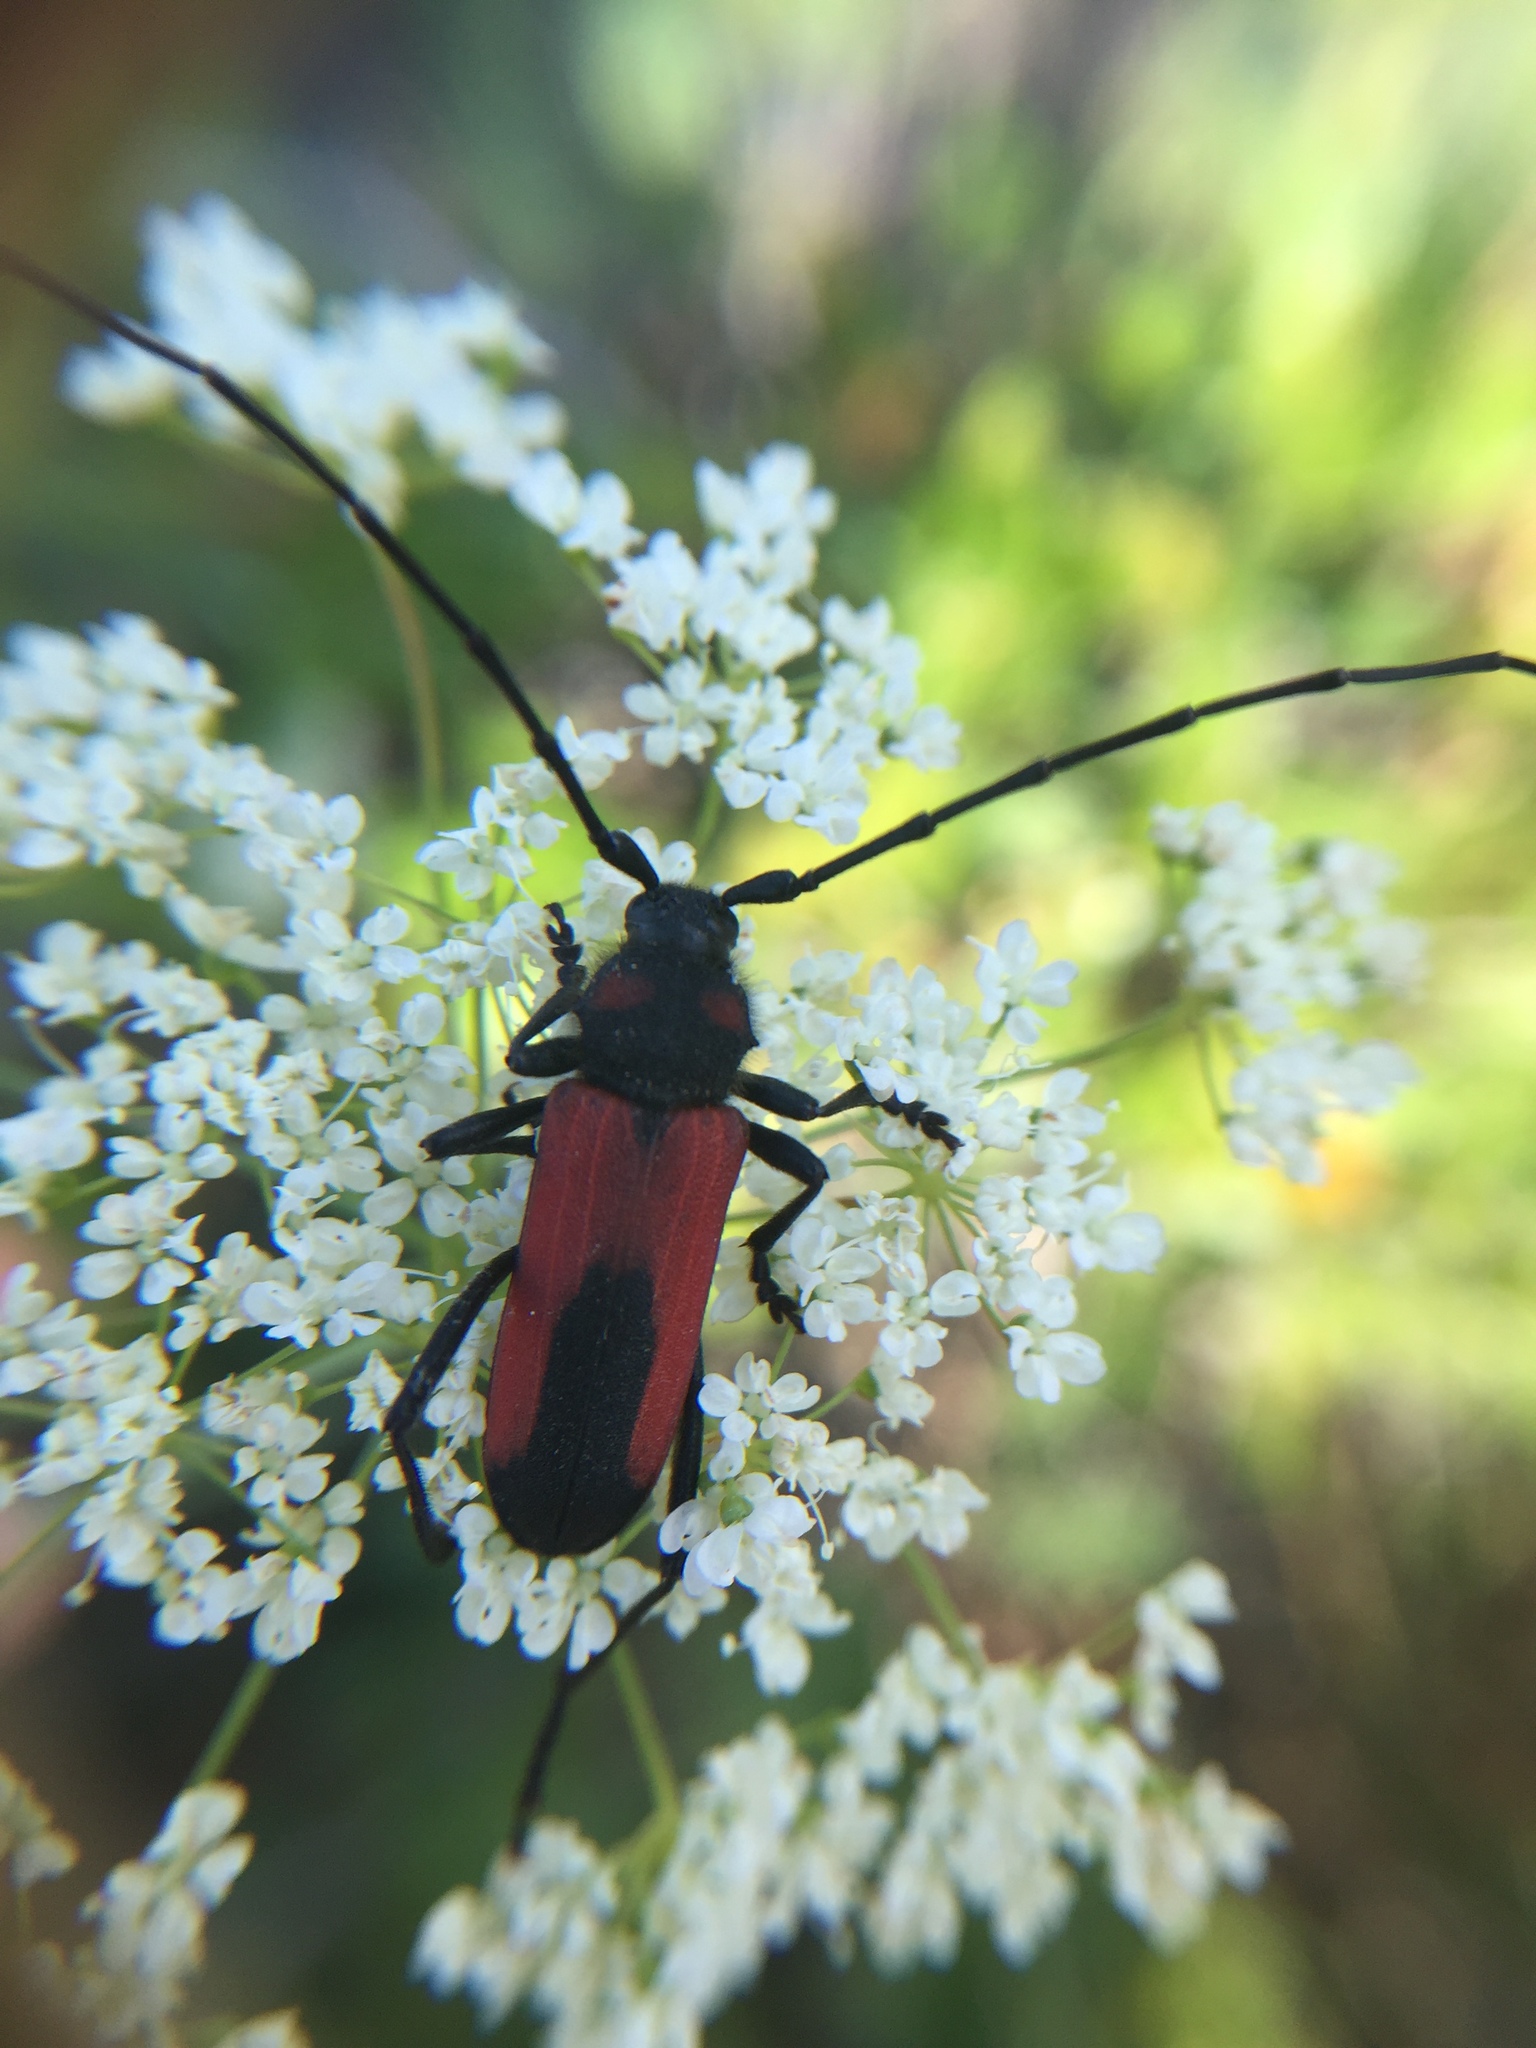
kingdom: Animalia
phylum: Arthropoda
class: Insecta
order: Coleoptera
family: Cerambycidae
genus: Purpuricenus
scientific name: Purpuricenus budensis
